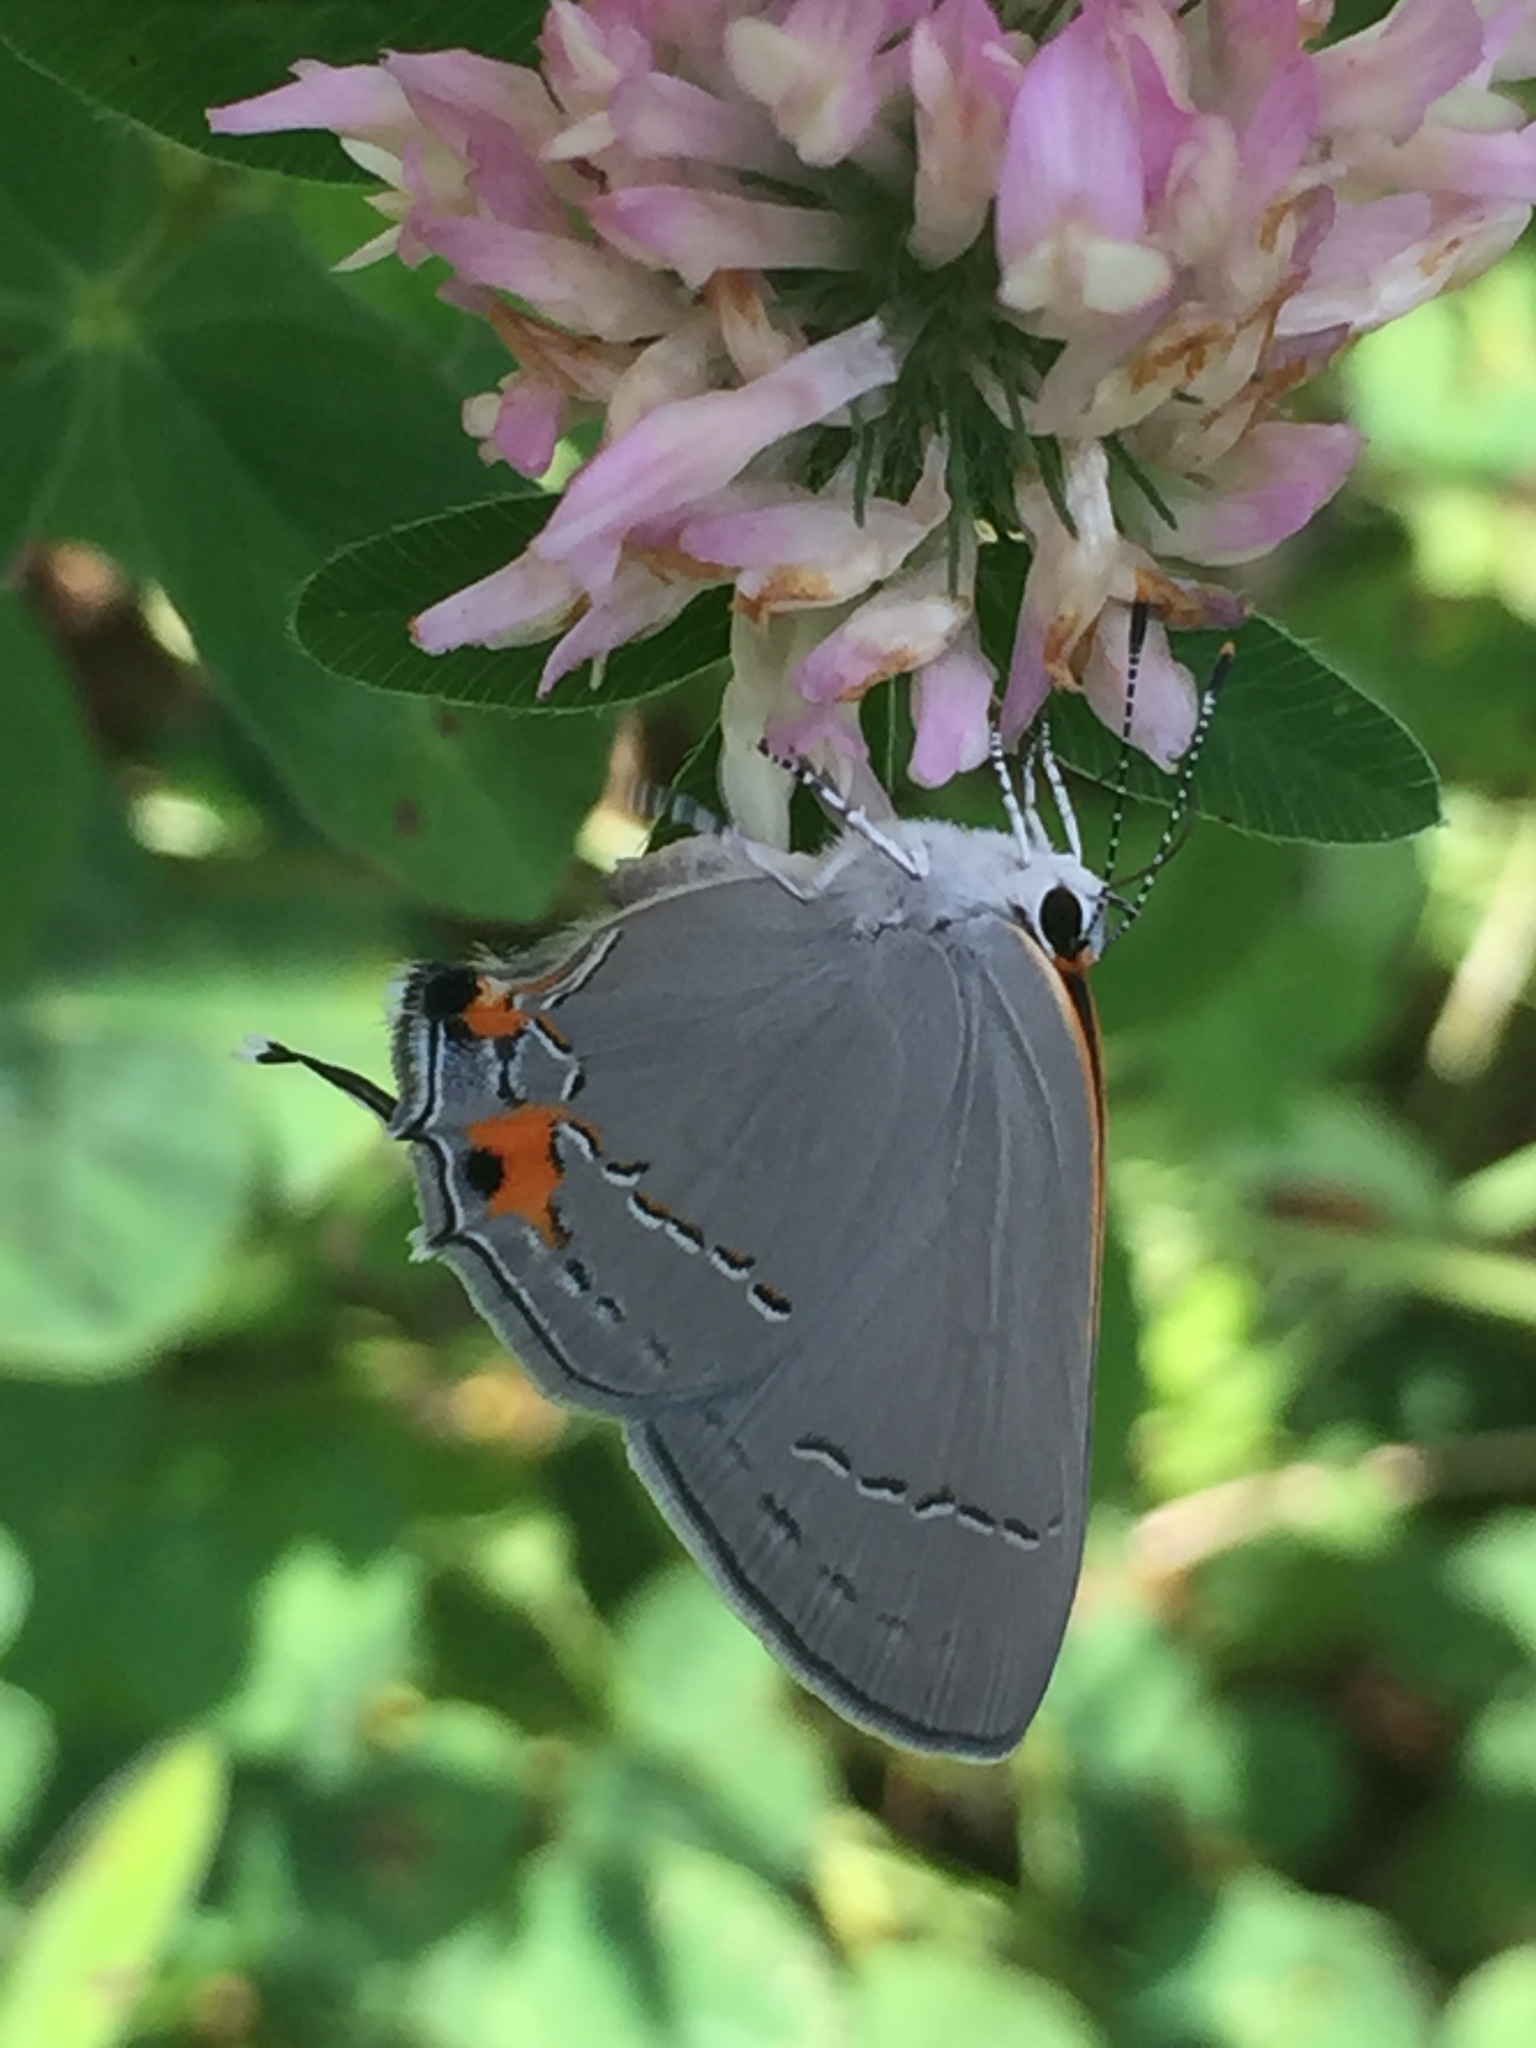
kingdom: Animalia
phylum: Arthropoda
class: Insecta
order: Lepidoptera
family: Lycaenidae
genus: Strymon
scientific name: Strymon melinus
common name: Gray hairstreak
